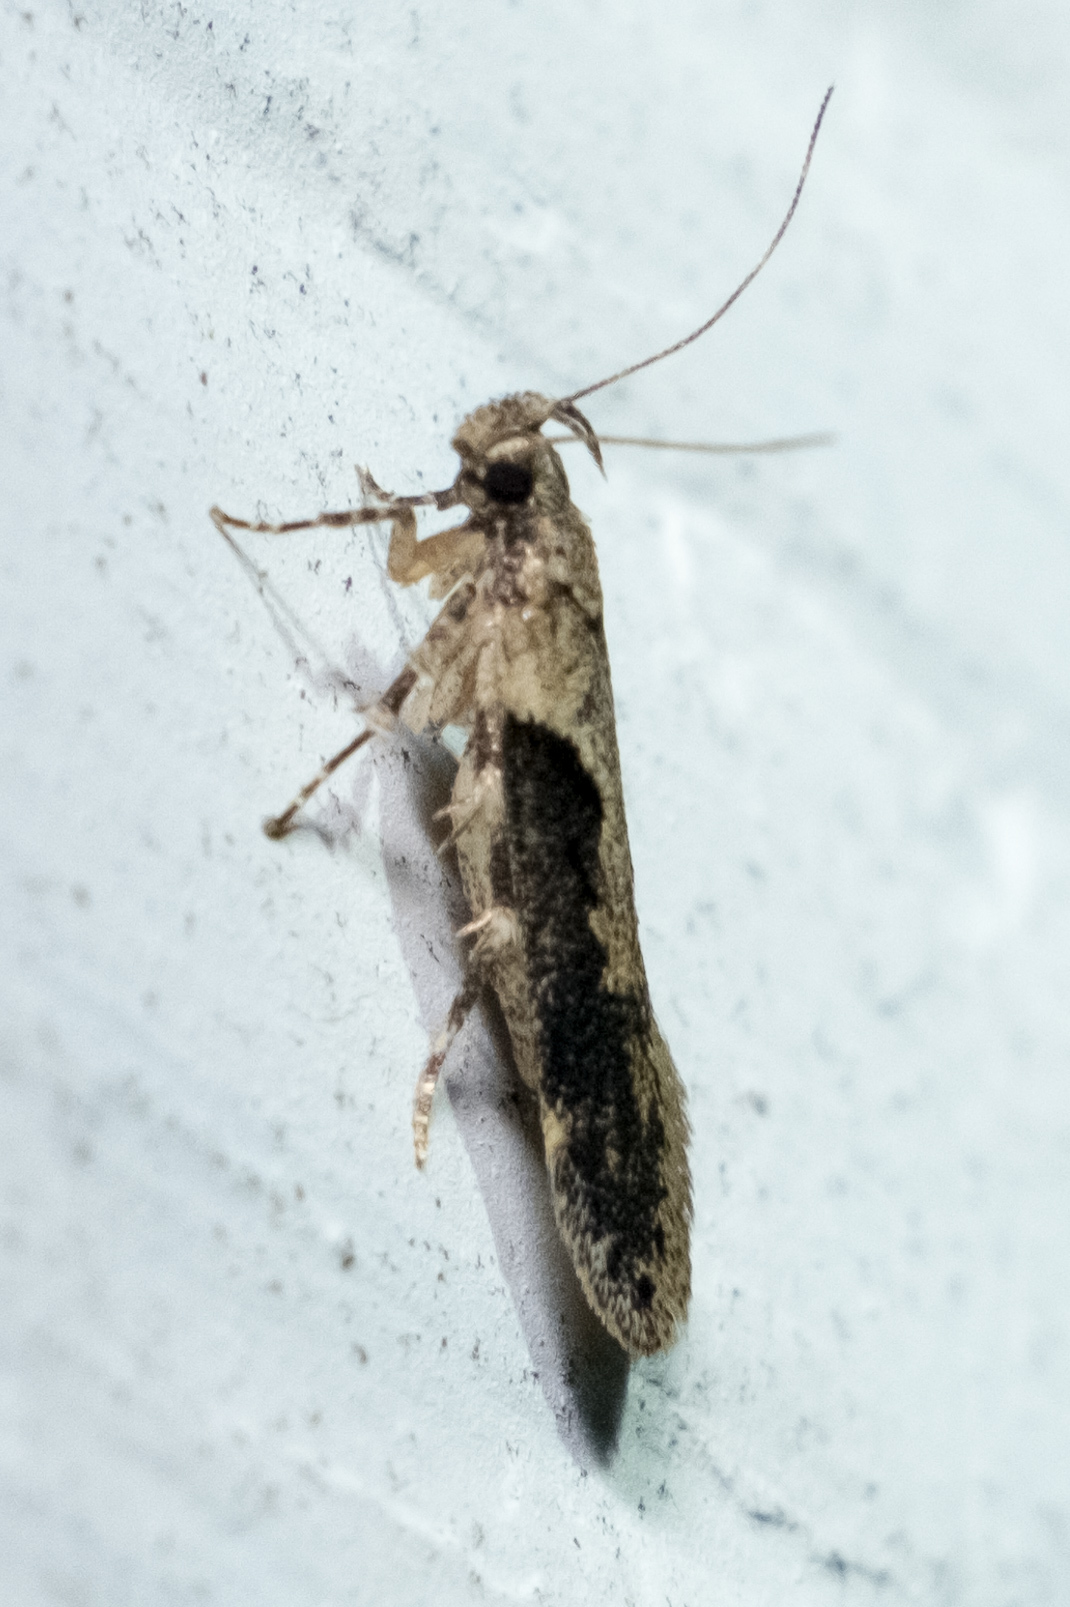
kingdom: Animalia
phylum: Arthropoda
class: Insecta
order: Lepidoptera
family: Gelechiidae
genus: Chionodes
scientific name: Chionodes mediofuscella
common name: Black-smudged chionodes moth
